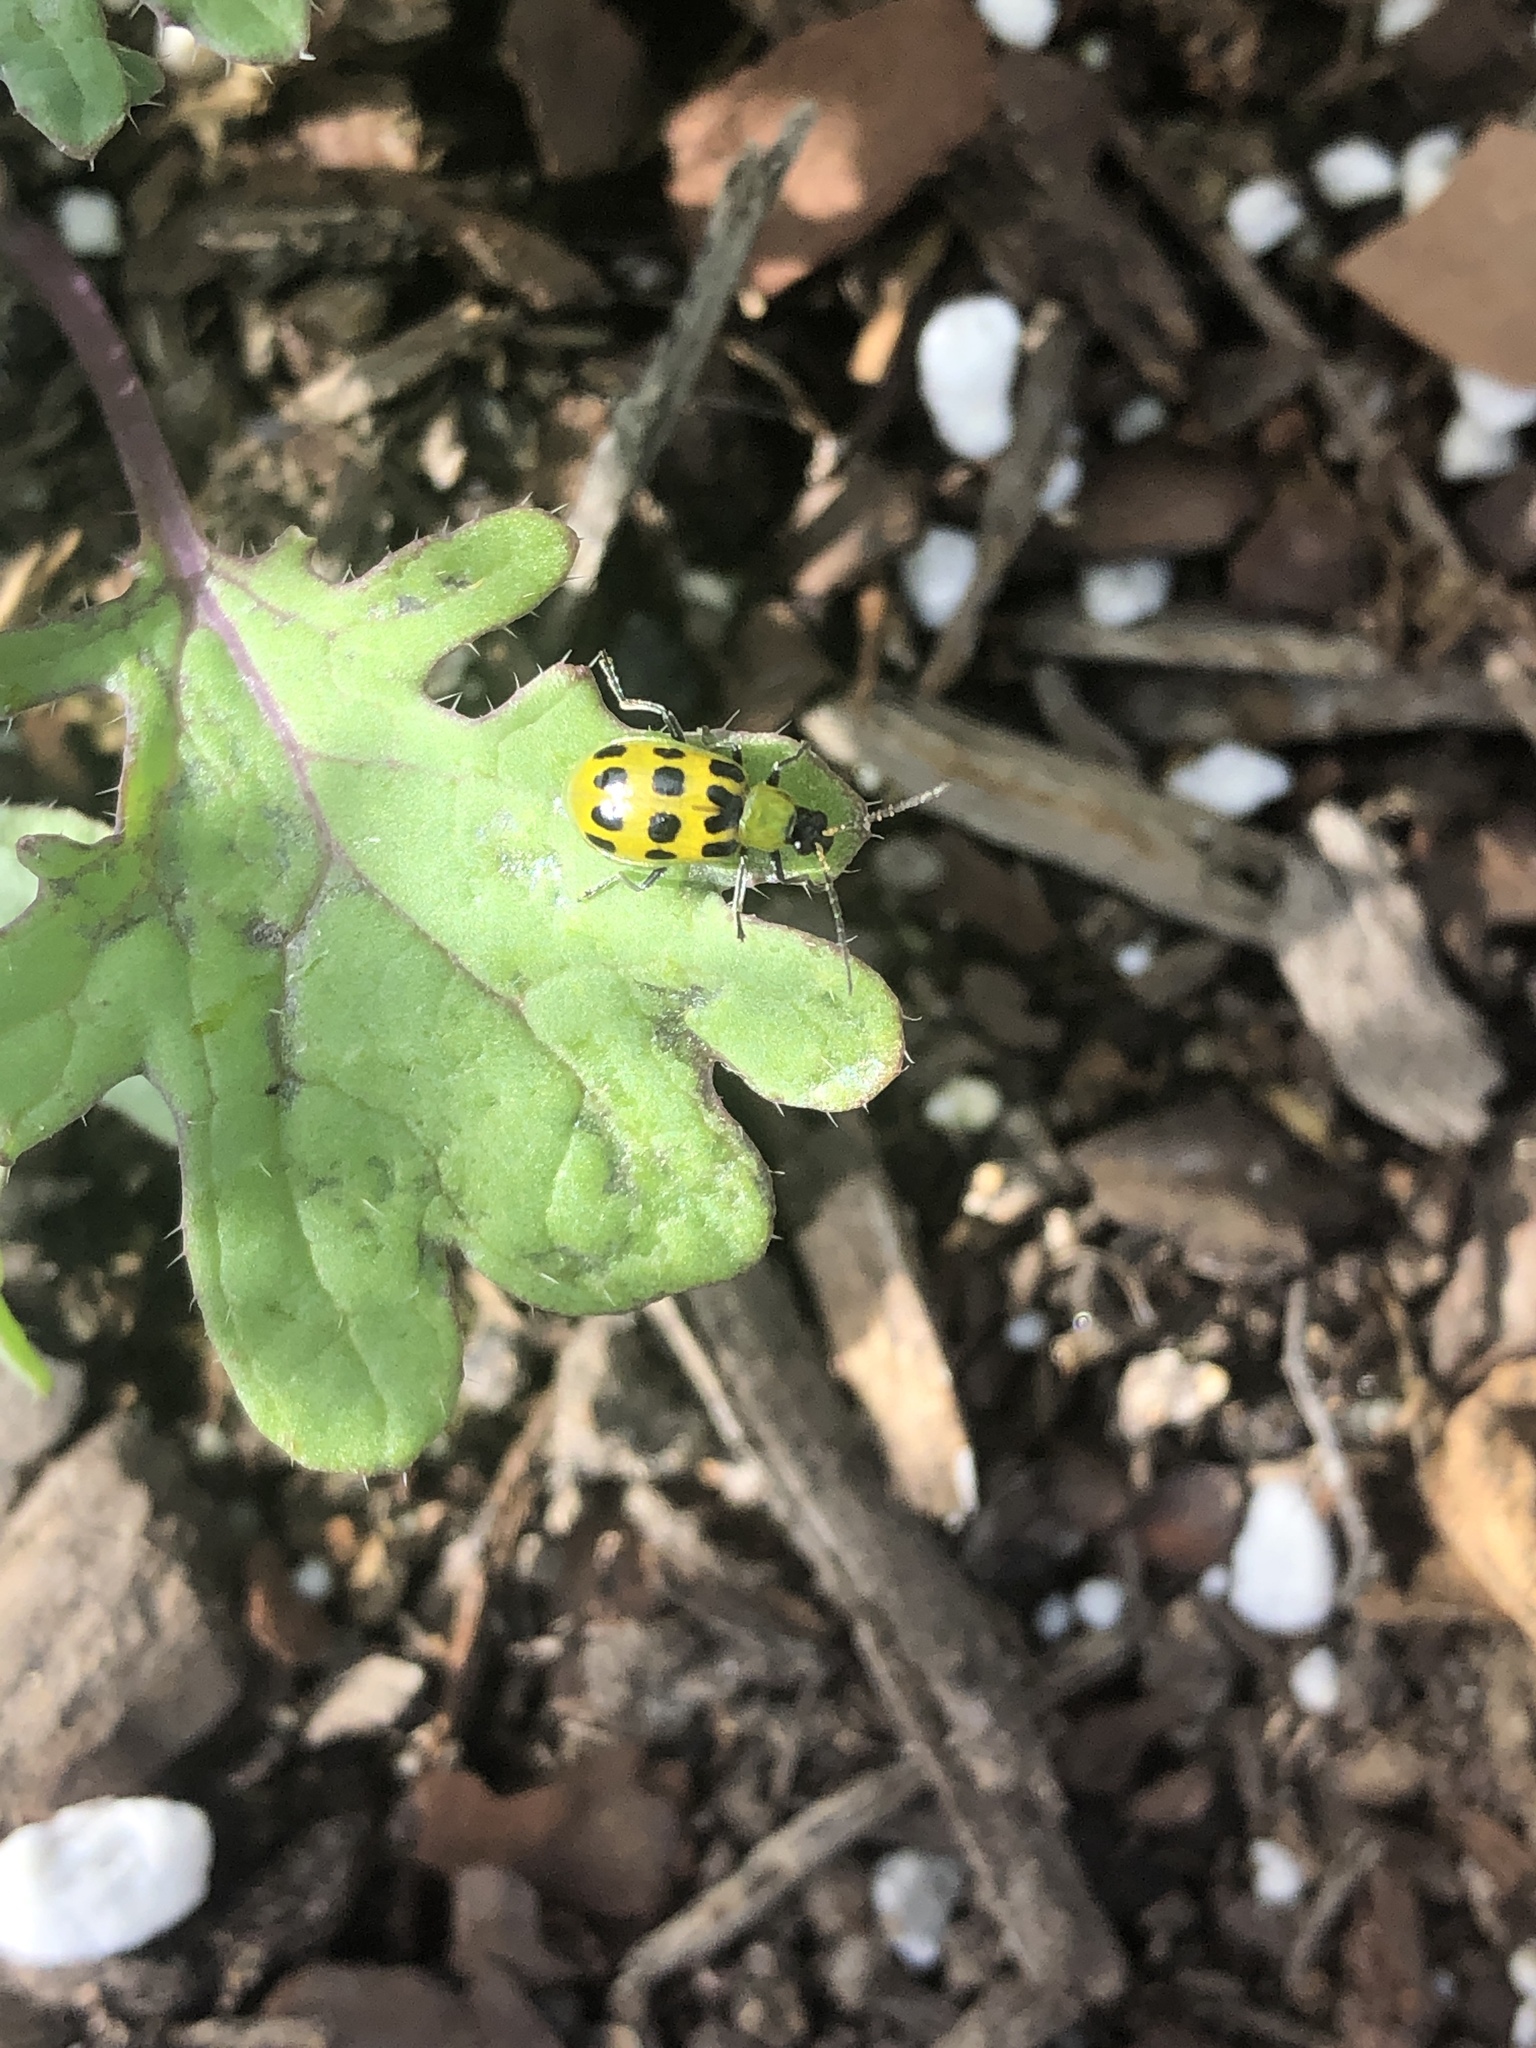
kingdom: Animalia
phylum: Arthropoda
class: Insecta
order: Coleoptera
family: Chrysomelidae
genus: Diabrotica
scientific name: Diabrotica undecimpunctata
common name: Spotted cucumber beetle
